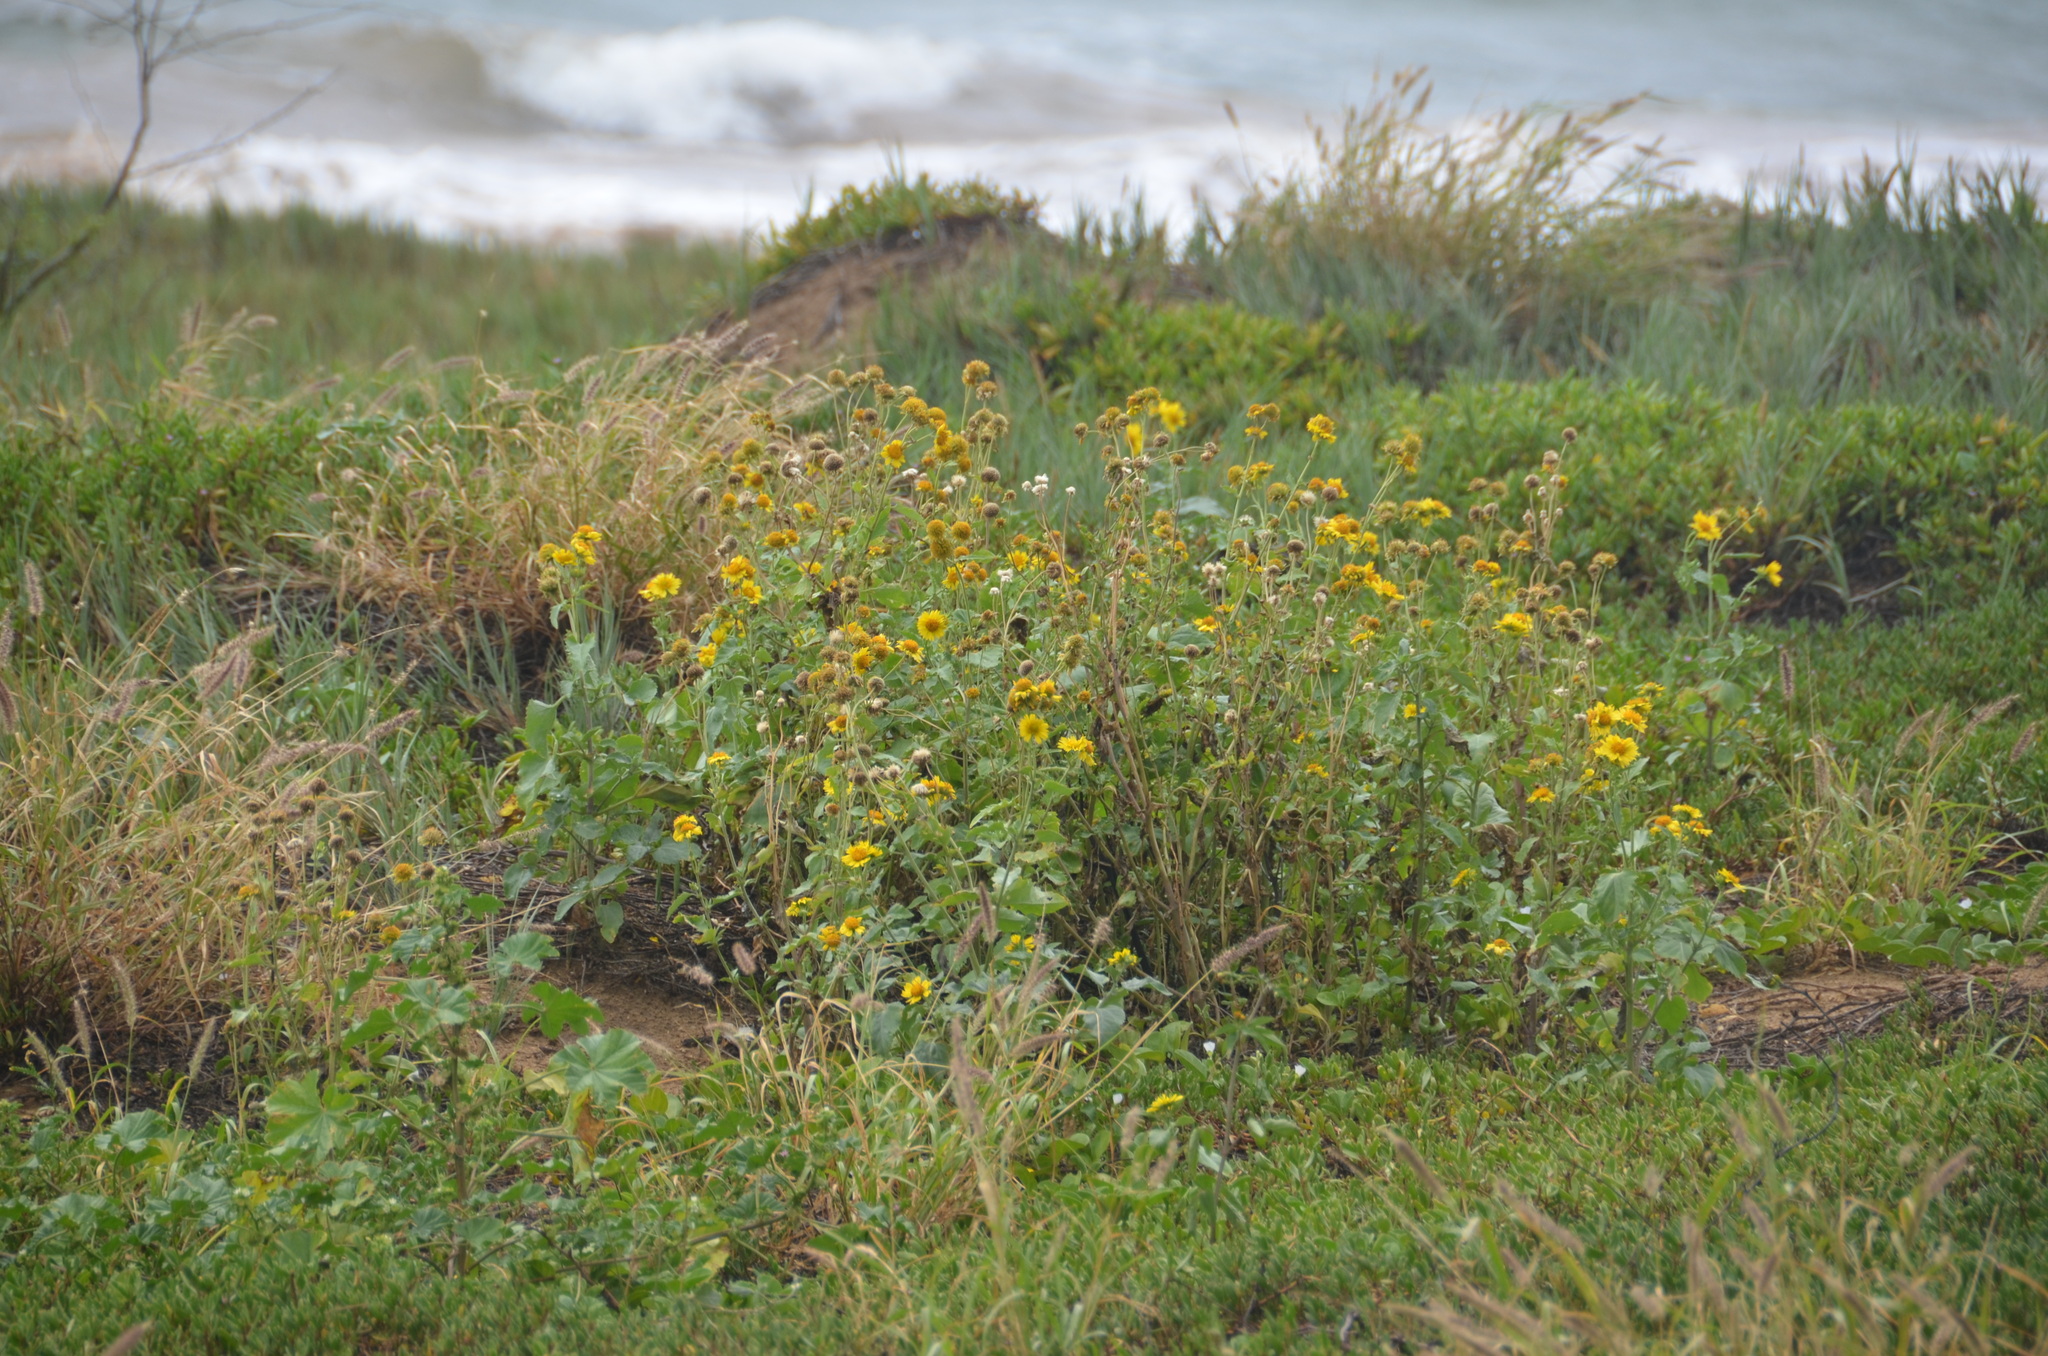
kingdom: Plantae
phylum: Tracheophyta
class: Magnoliopsida
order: Asterales
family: Asteraceae
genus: Verbesina
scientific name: Verbesina encelioides
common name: Golden crownbeard
